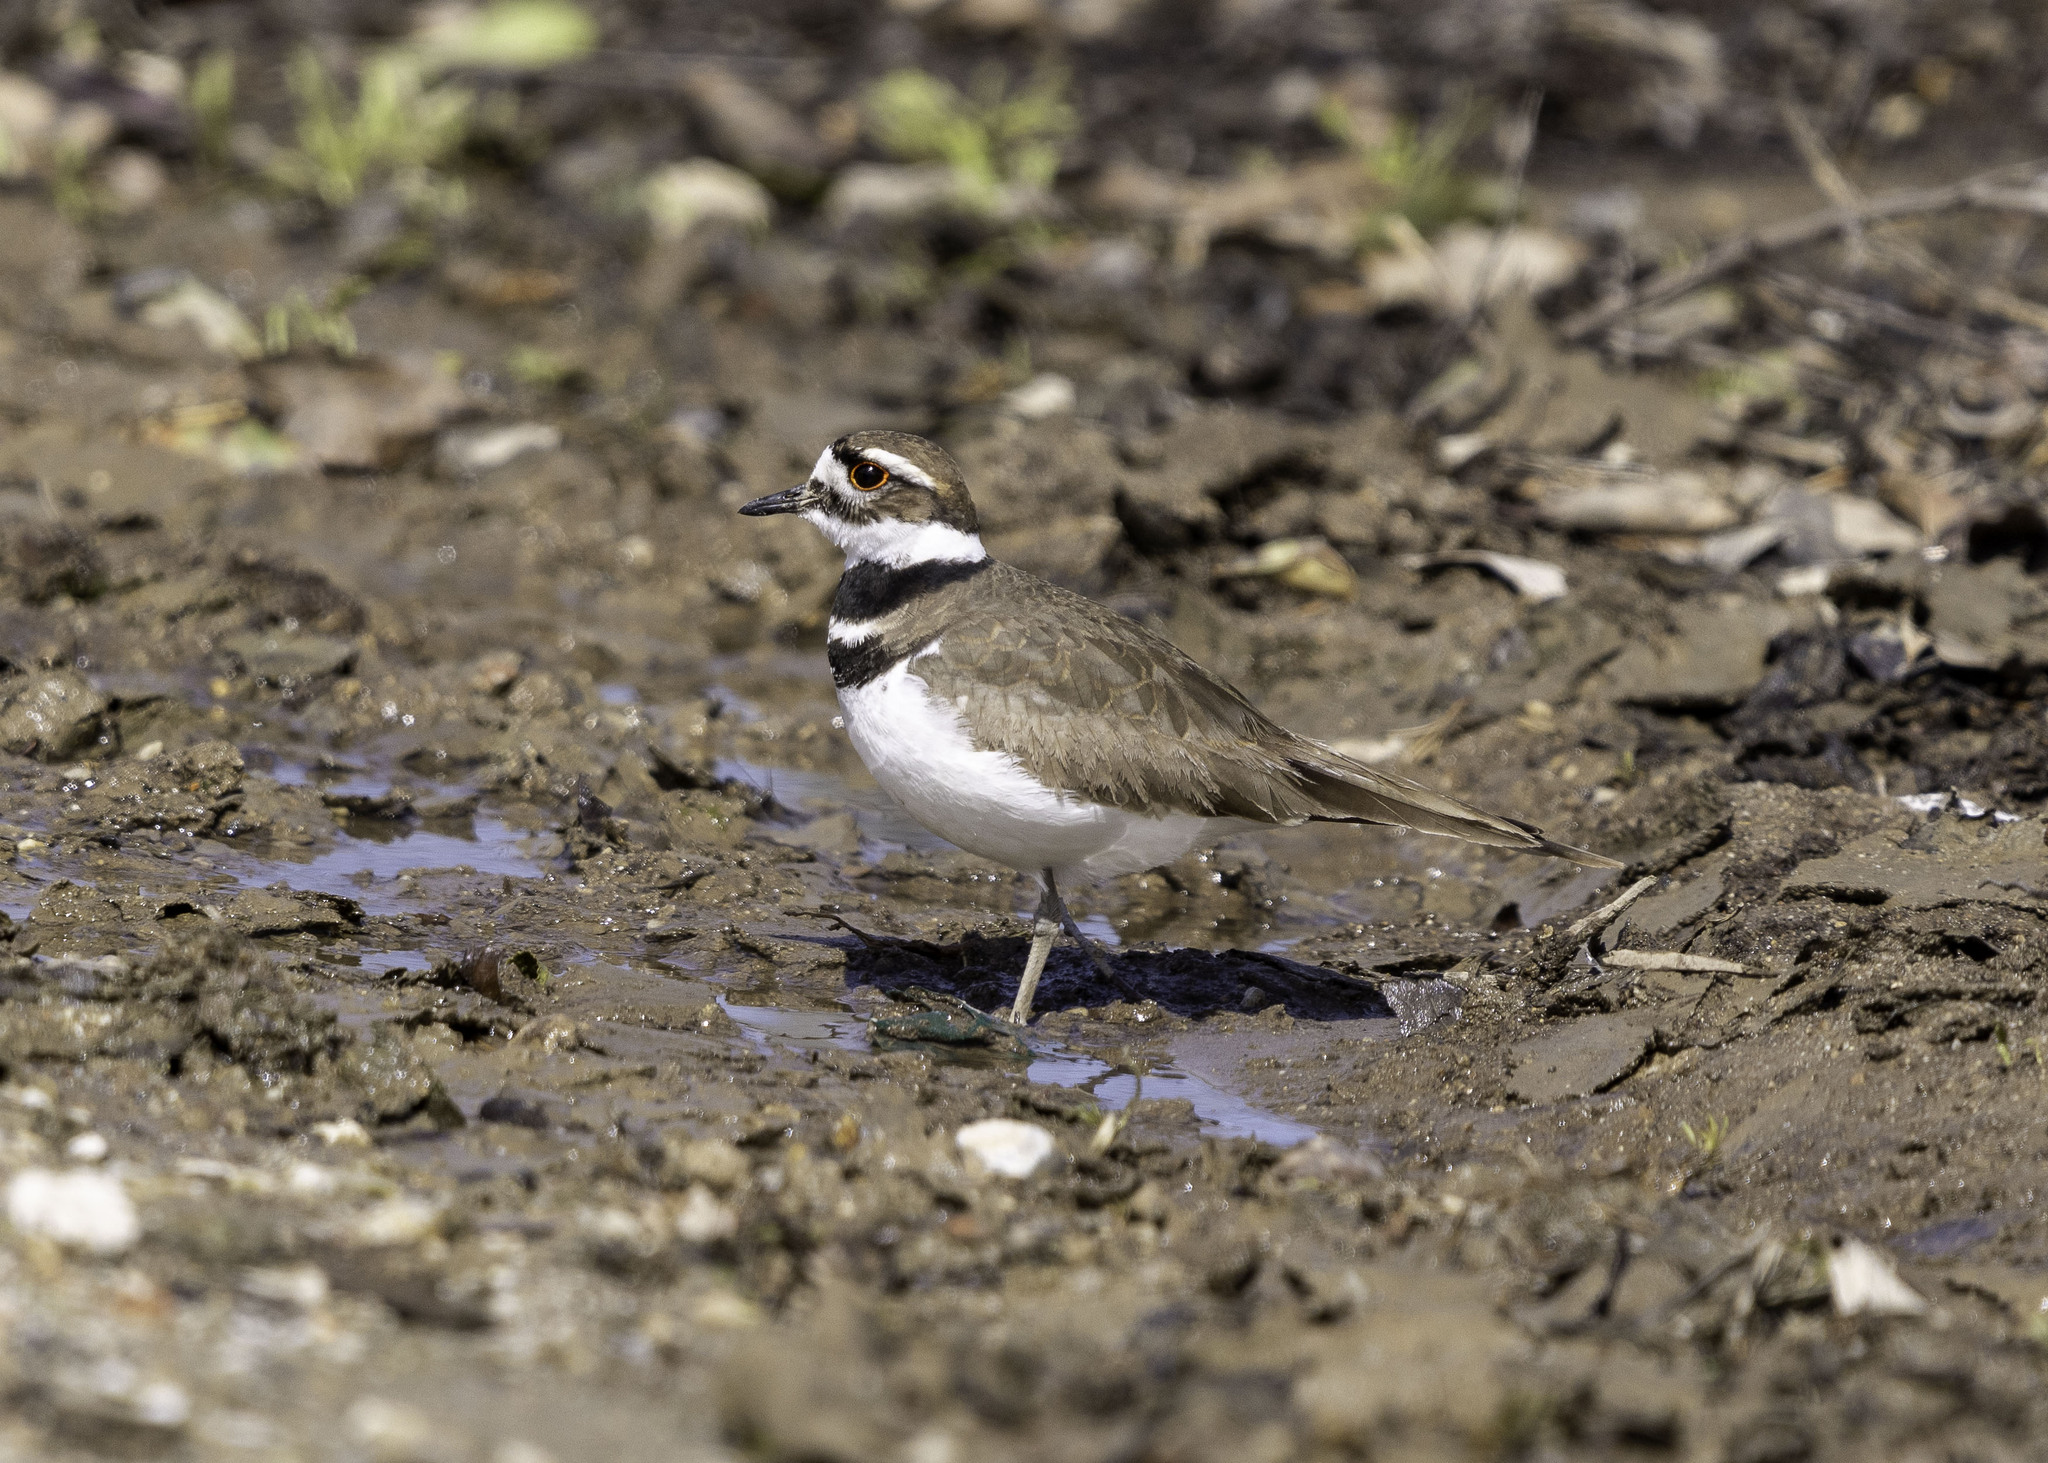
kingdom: Animalia
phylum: Chordata
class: Aves
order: Charadriiformes
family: Charadriidae
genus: Charadrius
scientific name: Charadrius vociferus
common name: Killdeer
